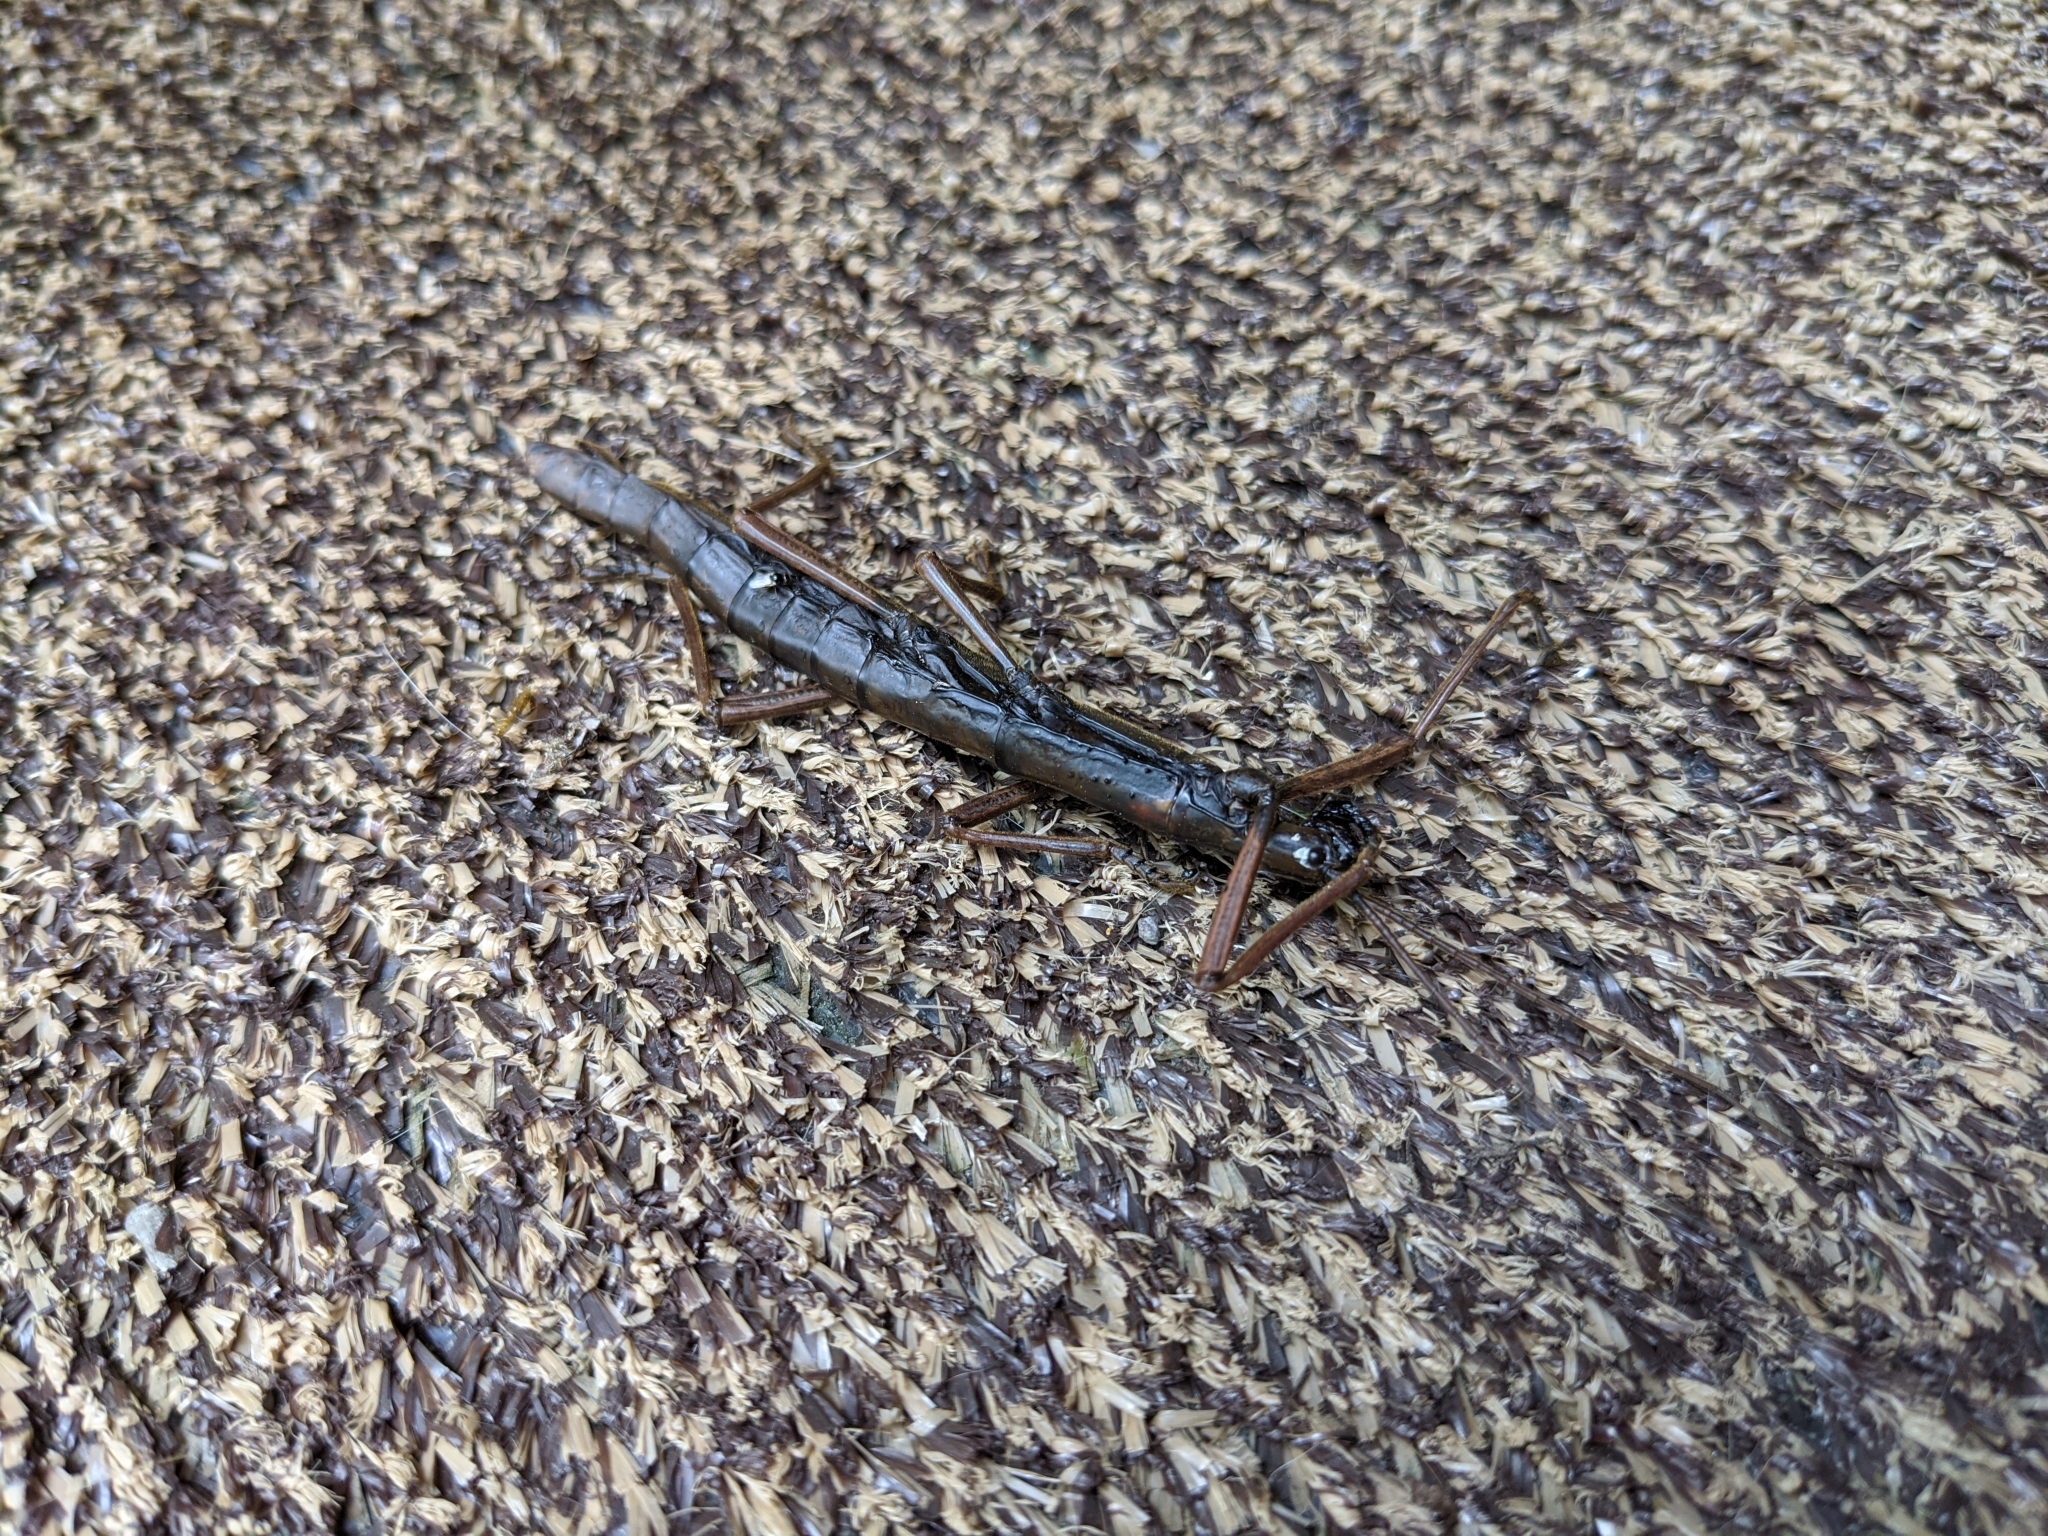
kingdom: Animalia
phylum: Arthropoda
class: Insecta
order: Phasmida
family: Pseudophasmatidae
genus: Anisomorpha
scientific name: Anisomorpha buprestoides
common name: Florida stick insect
